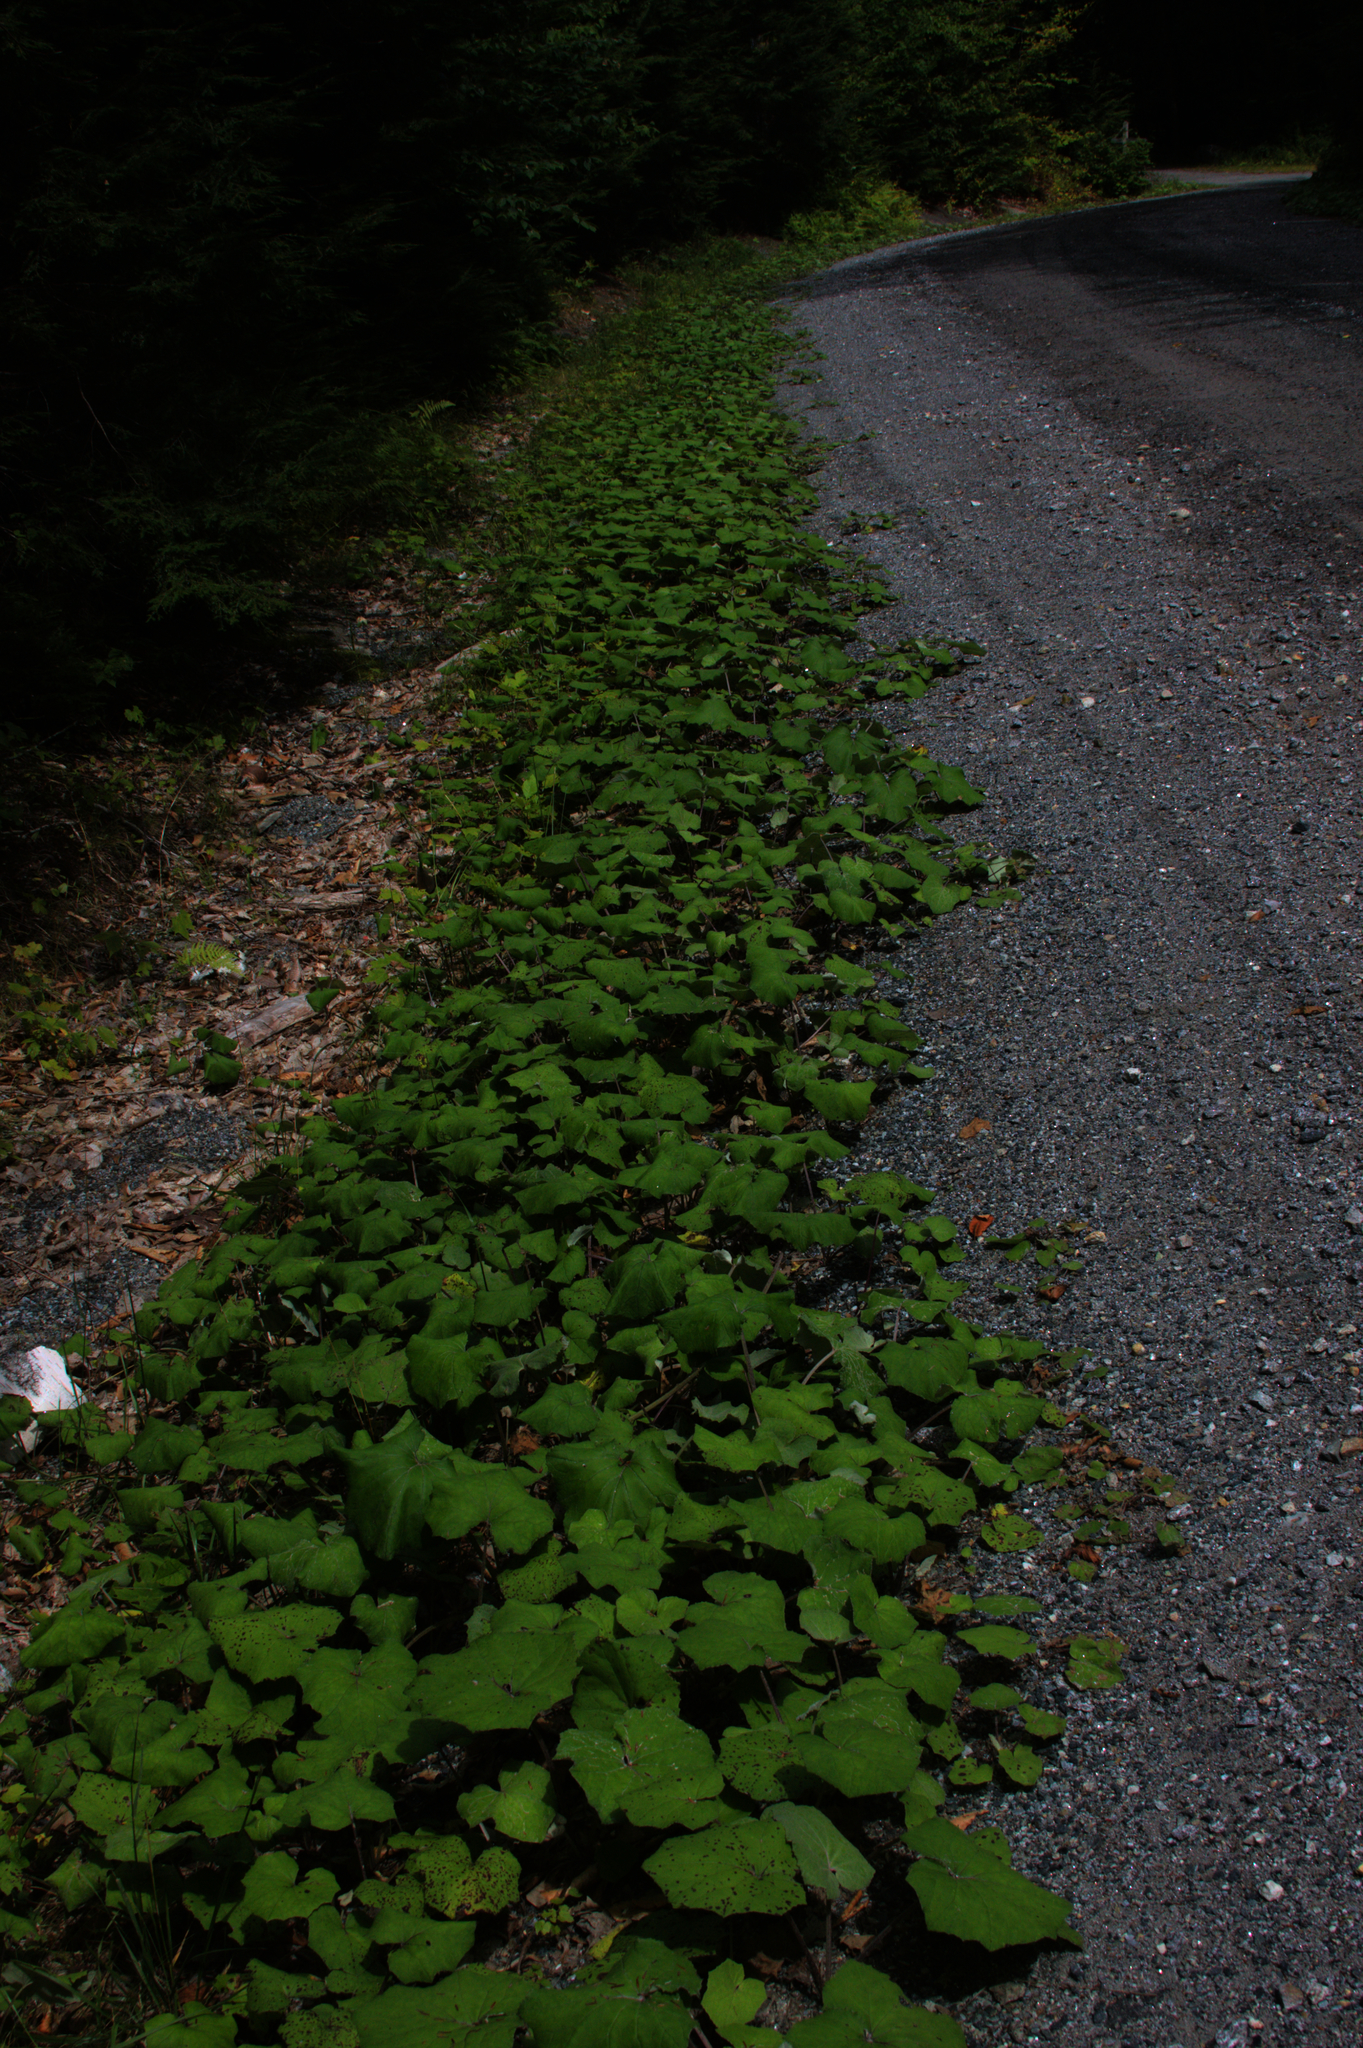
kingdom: Plantae
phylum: Tracheophyta
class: Magnoliopsida
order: Asterales
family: Asteraceae
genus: Tussilago
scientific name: Tussilago farfara
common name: Coltsfoot
